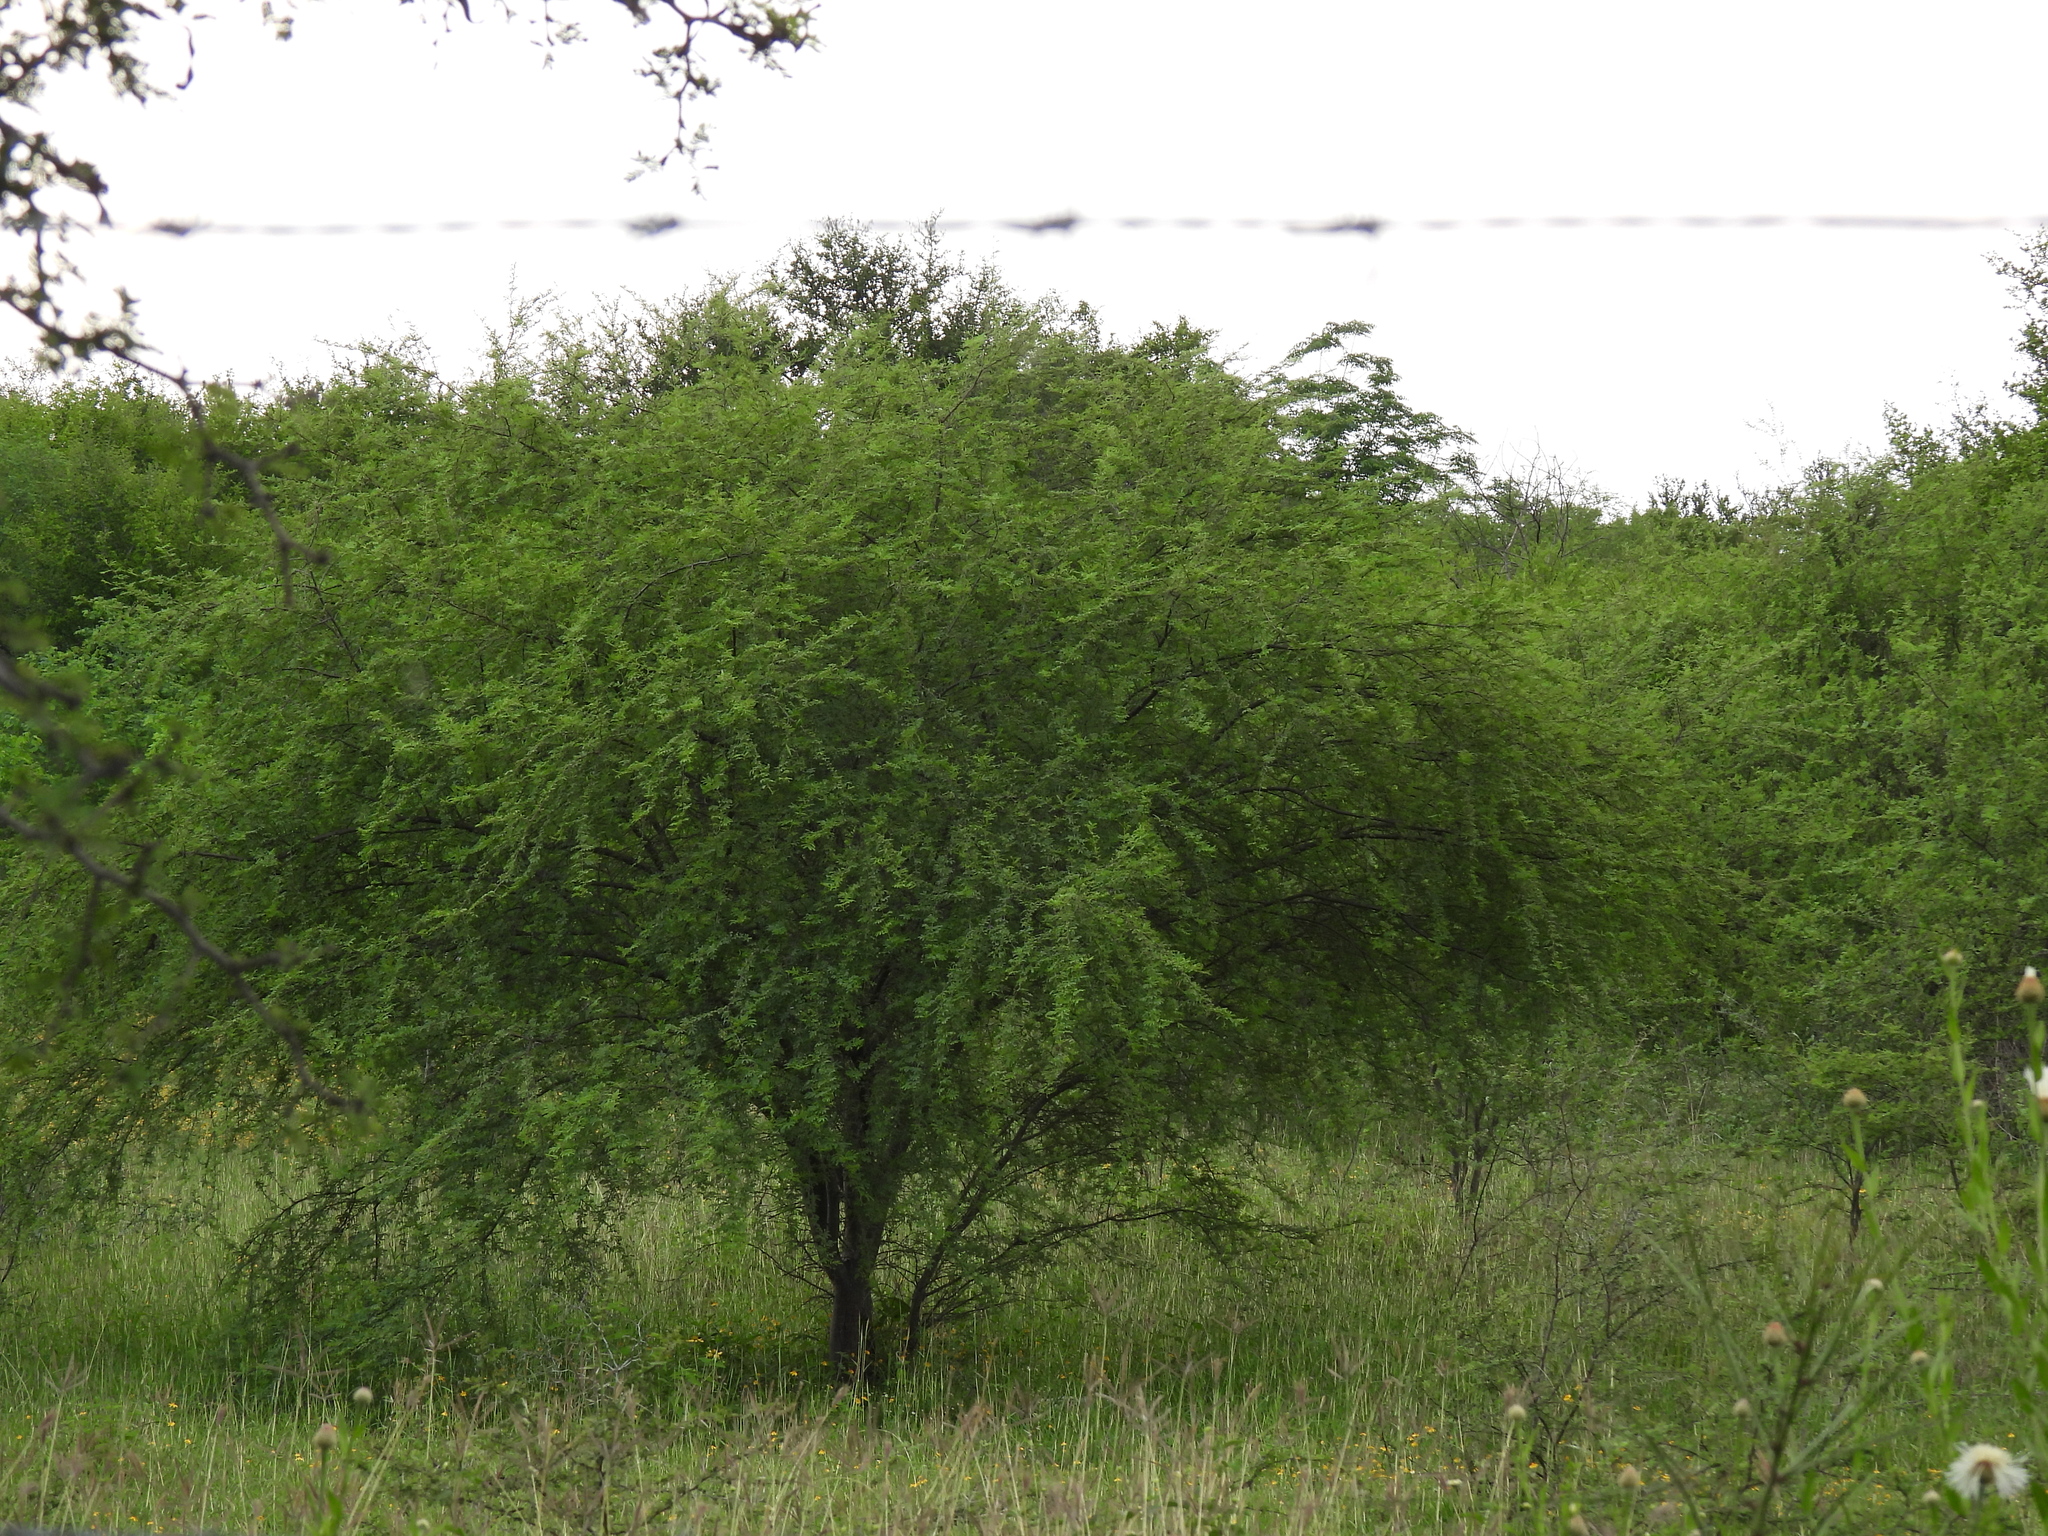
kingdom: Plantae
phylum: Tracheophyta
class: Magnoliopsida
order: Fabales
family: Fabaceae
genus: Vachellia
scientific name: Vachellia farnesiana
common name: Sweet acacia
